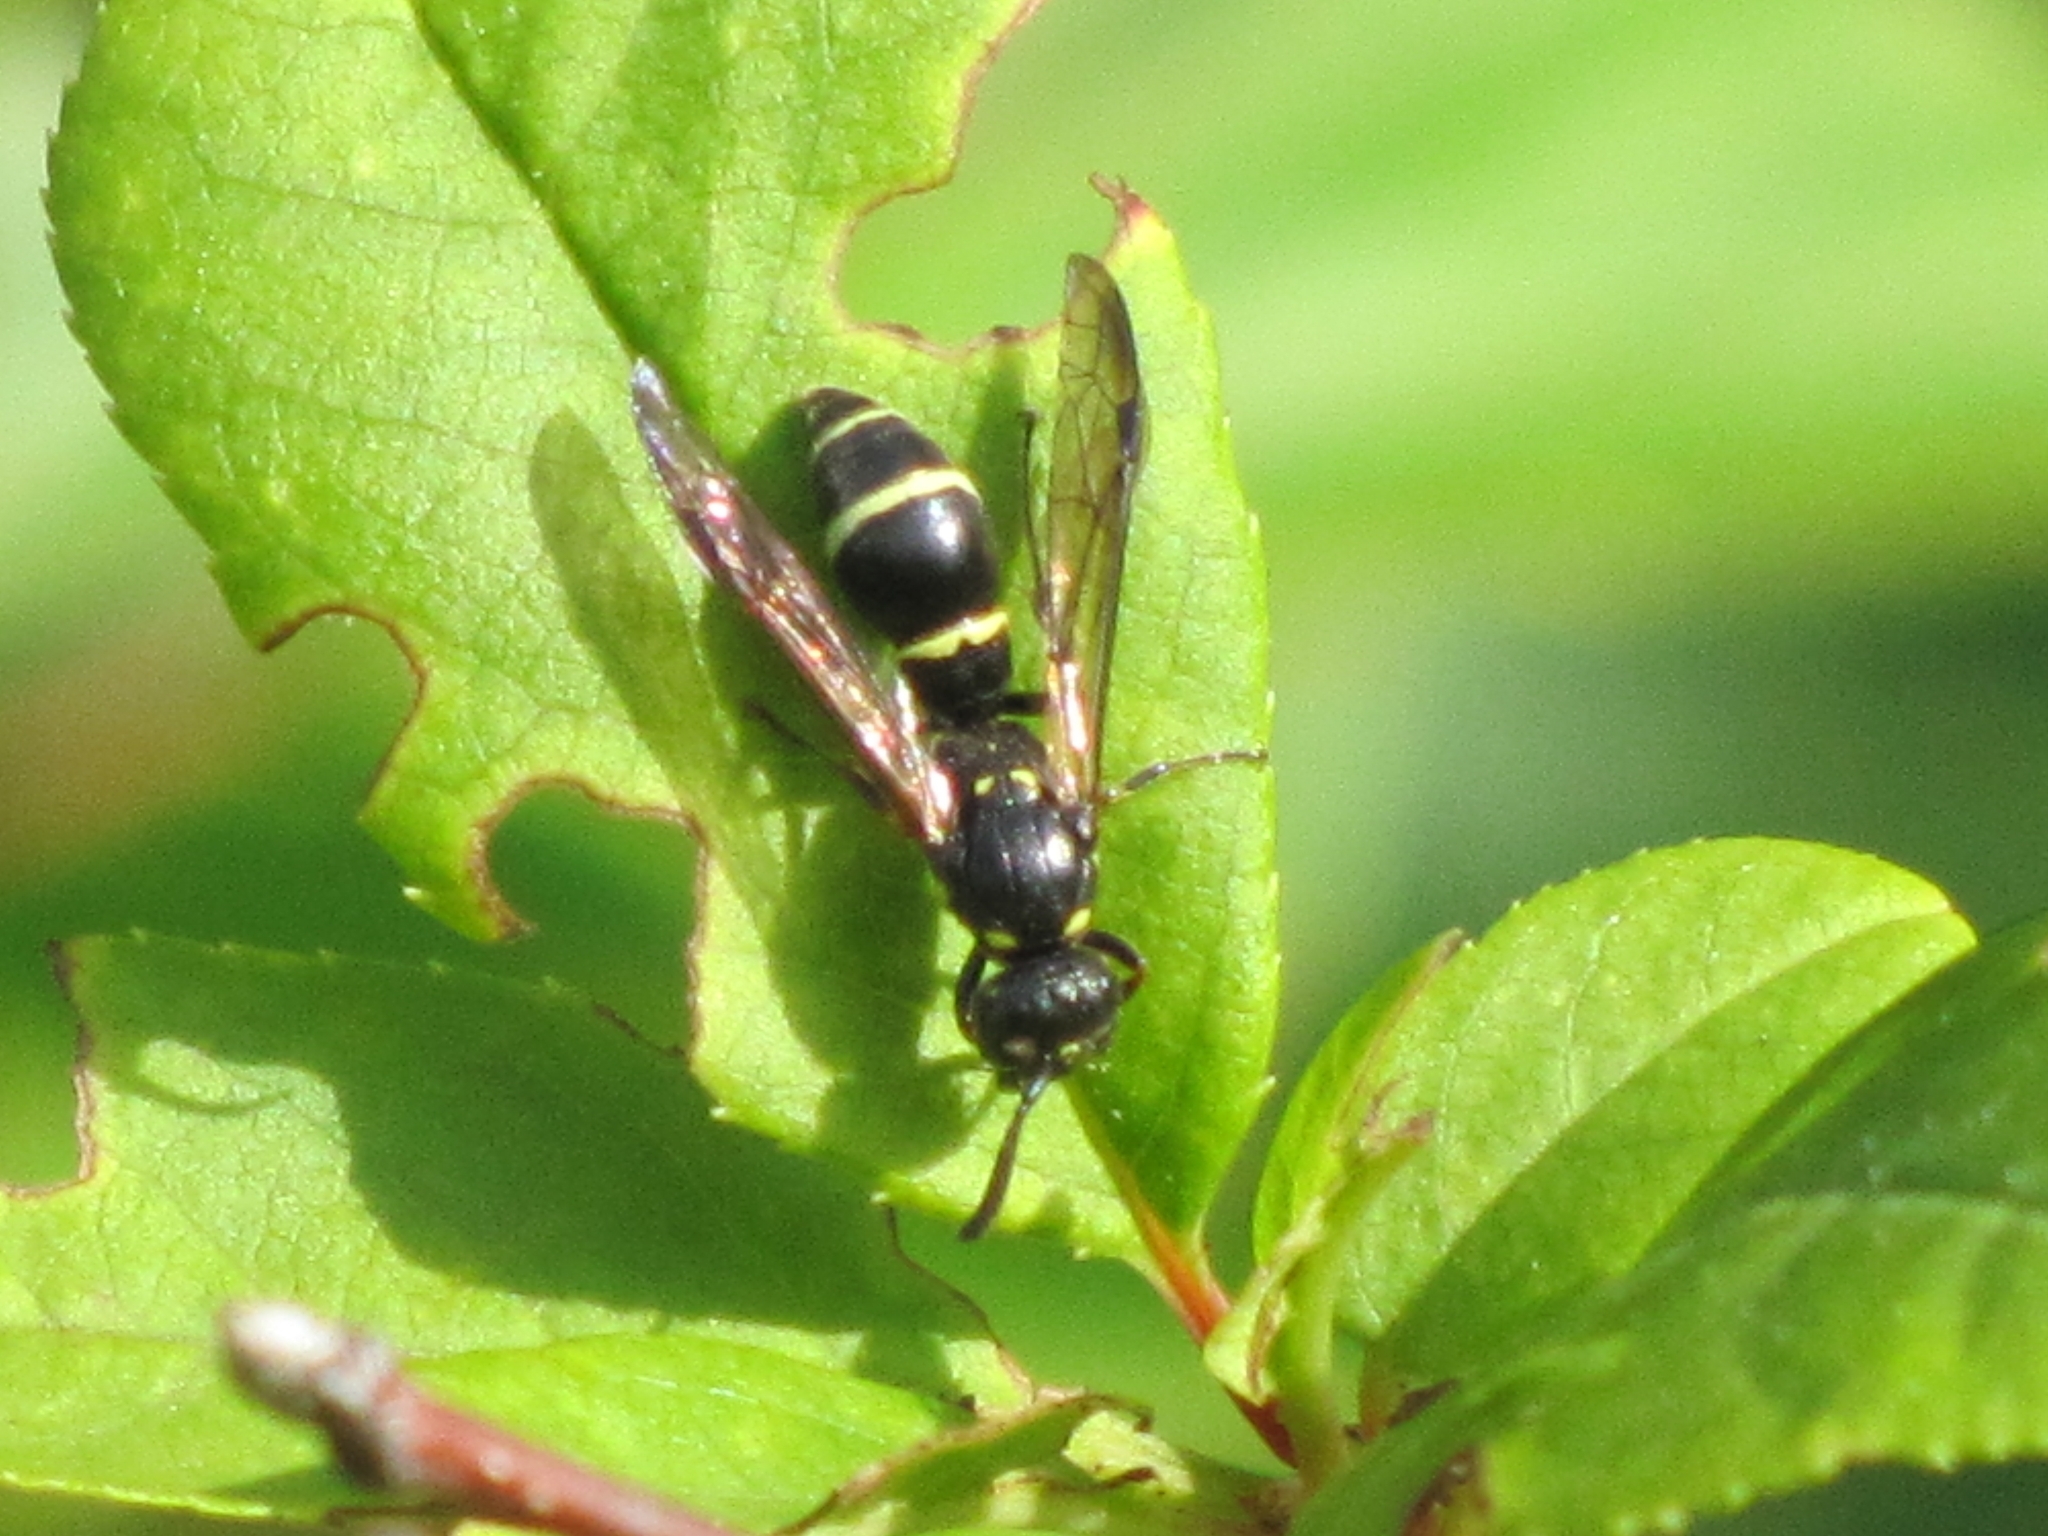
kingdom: Animalia
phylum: Arthropoda
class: Insecta
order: Hymenoptera
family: Eumenidae
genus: Symmorphus
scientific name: Symmorphus cristatus
